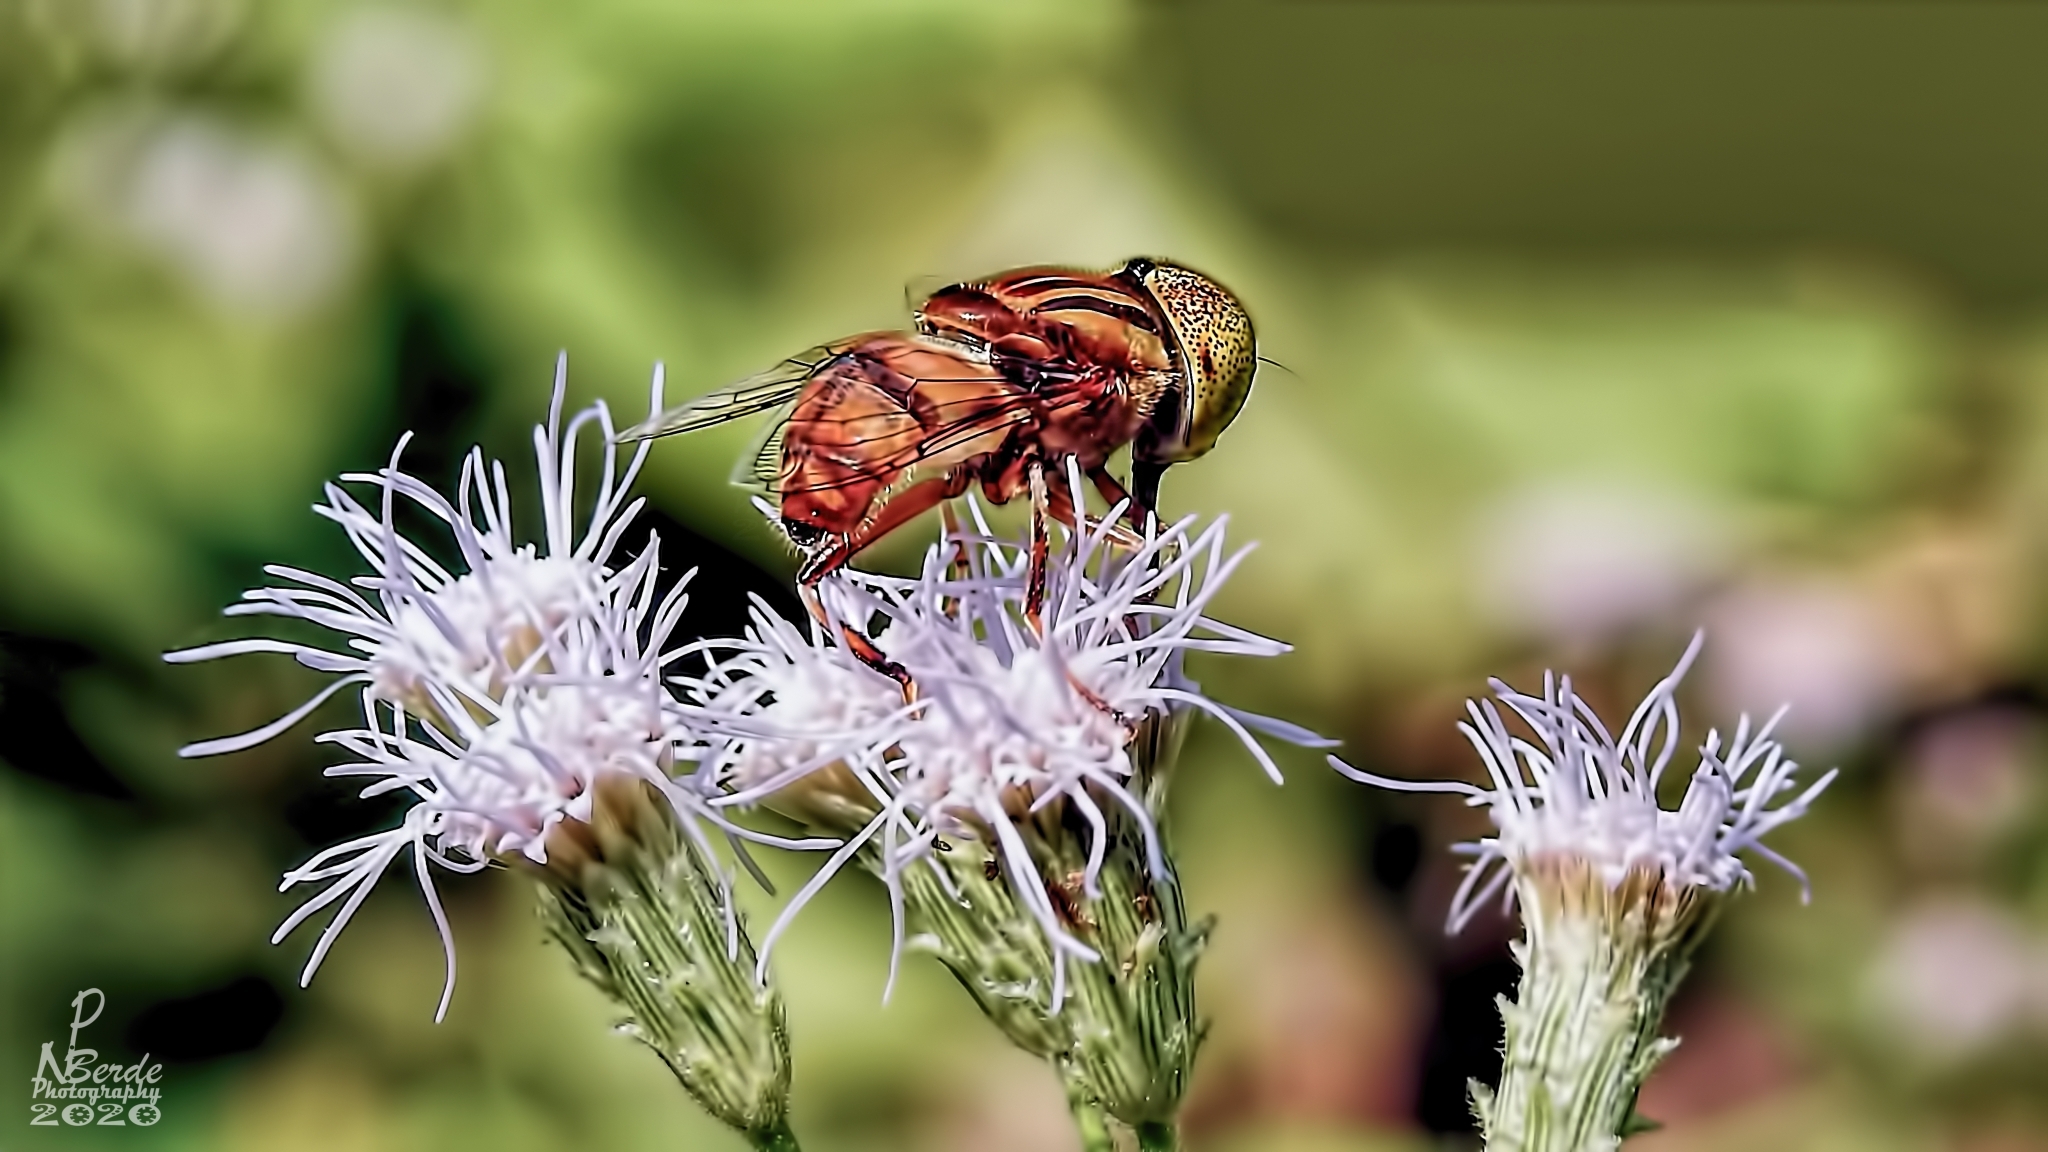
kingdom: Animalia
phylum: Arthropoda
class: Insecta
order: Diptera
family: Syrphidae
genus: Eristalinus
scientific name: Eristalinus arvorum
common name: Syrphid fly
